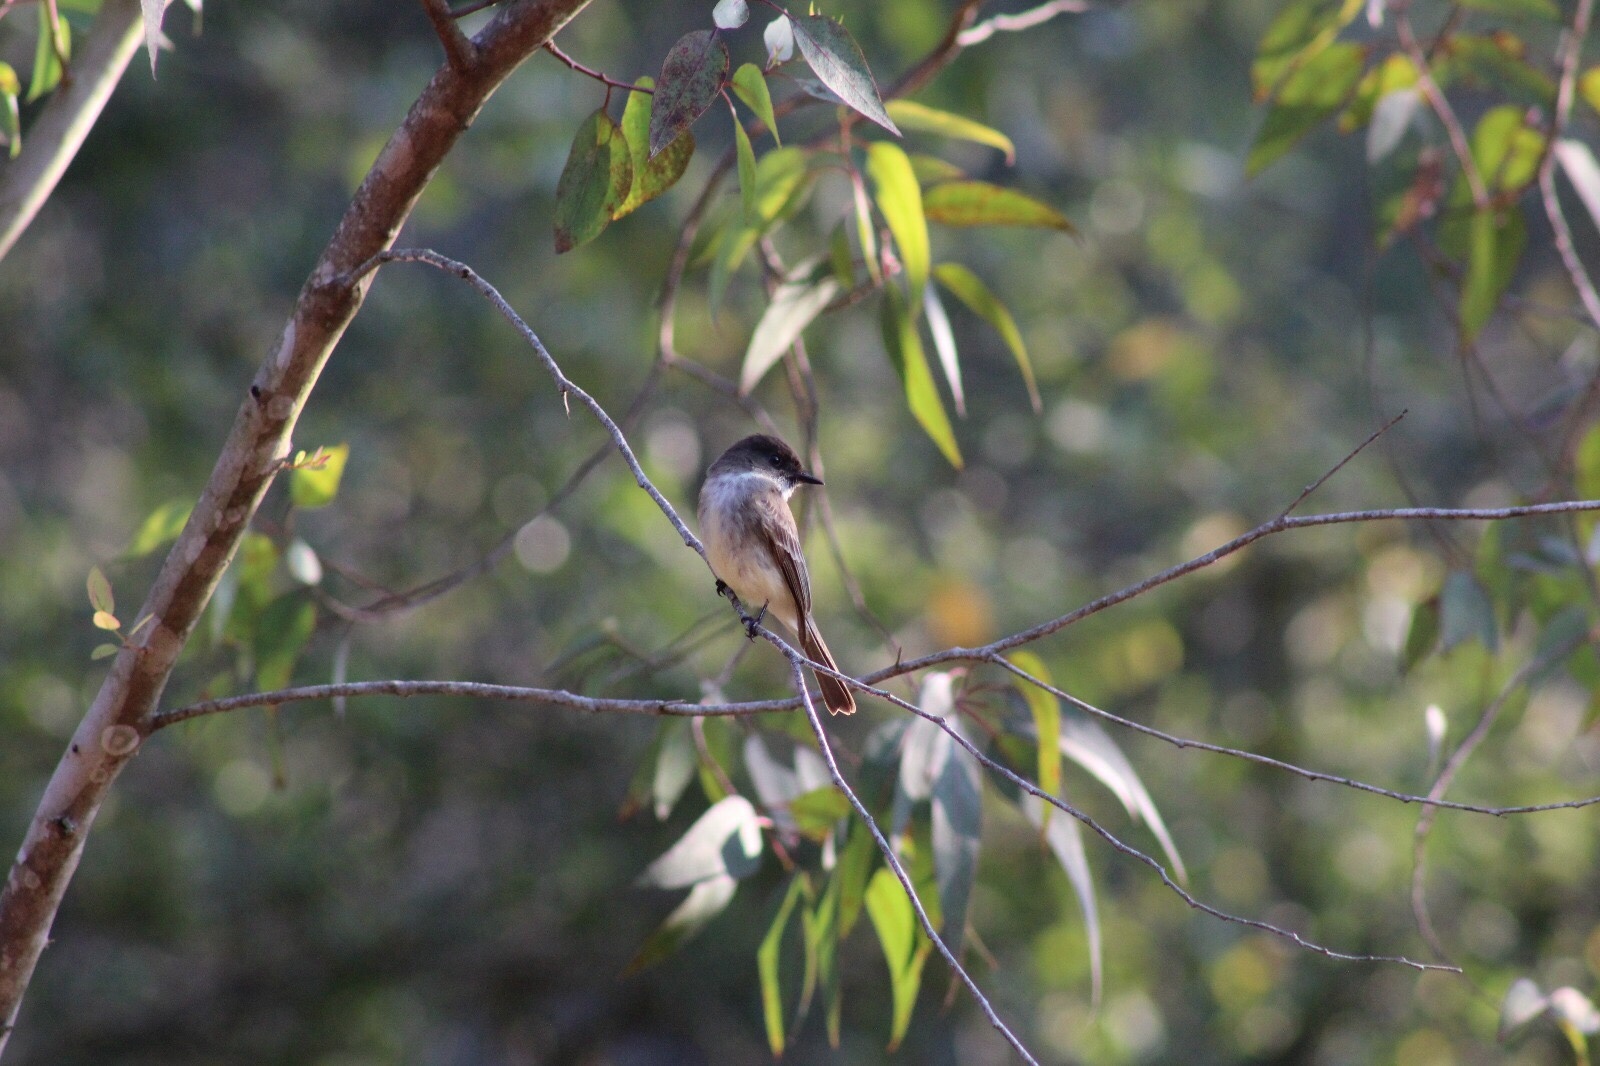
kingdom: Animalia
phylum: Chordata
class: Aves
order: Passeriformes
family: Tyrannidae
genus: Sayornis
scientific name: Sayornis phoebe
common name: Eastern phoebe
